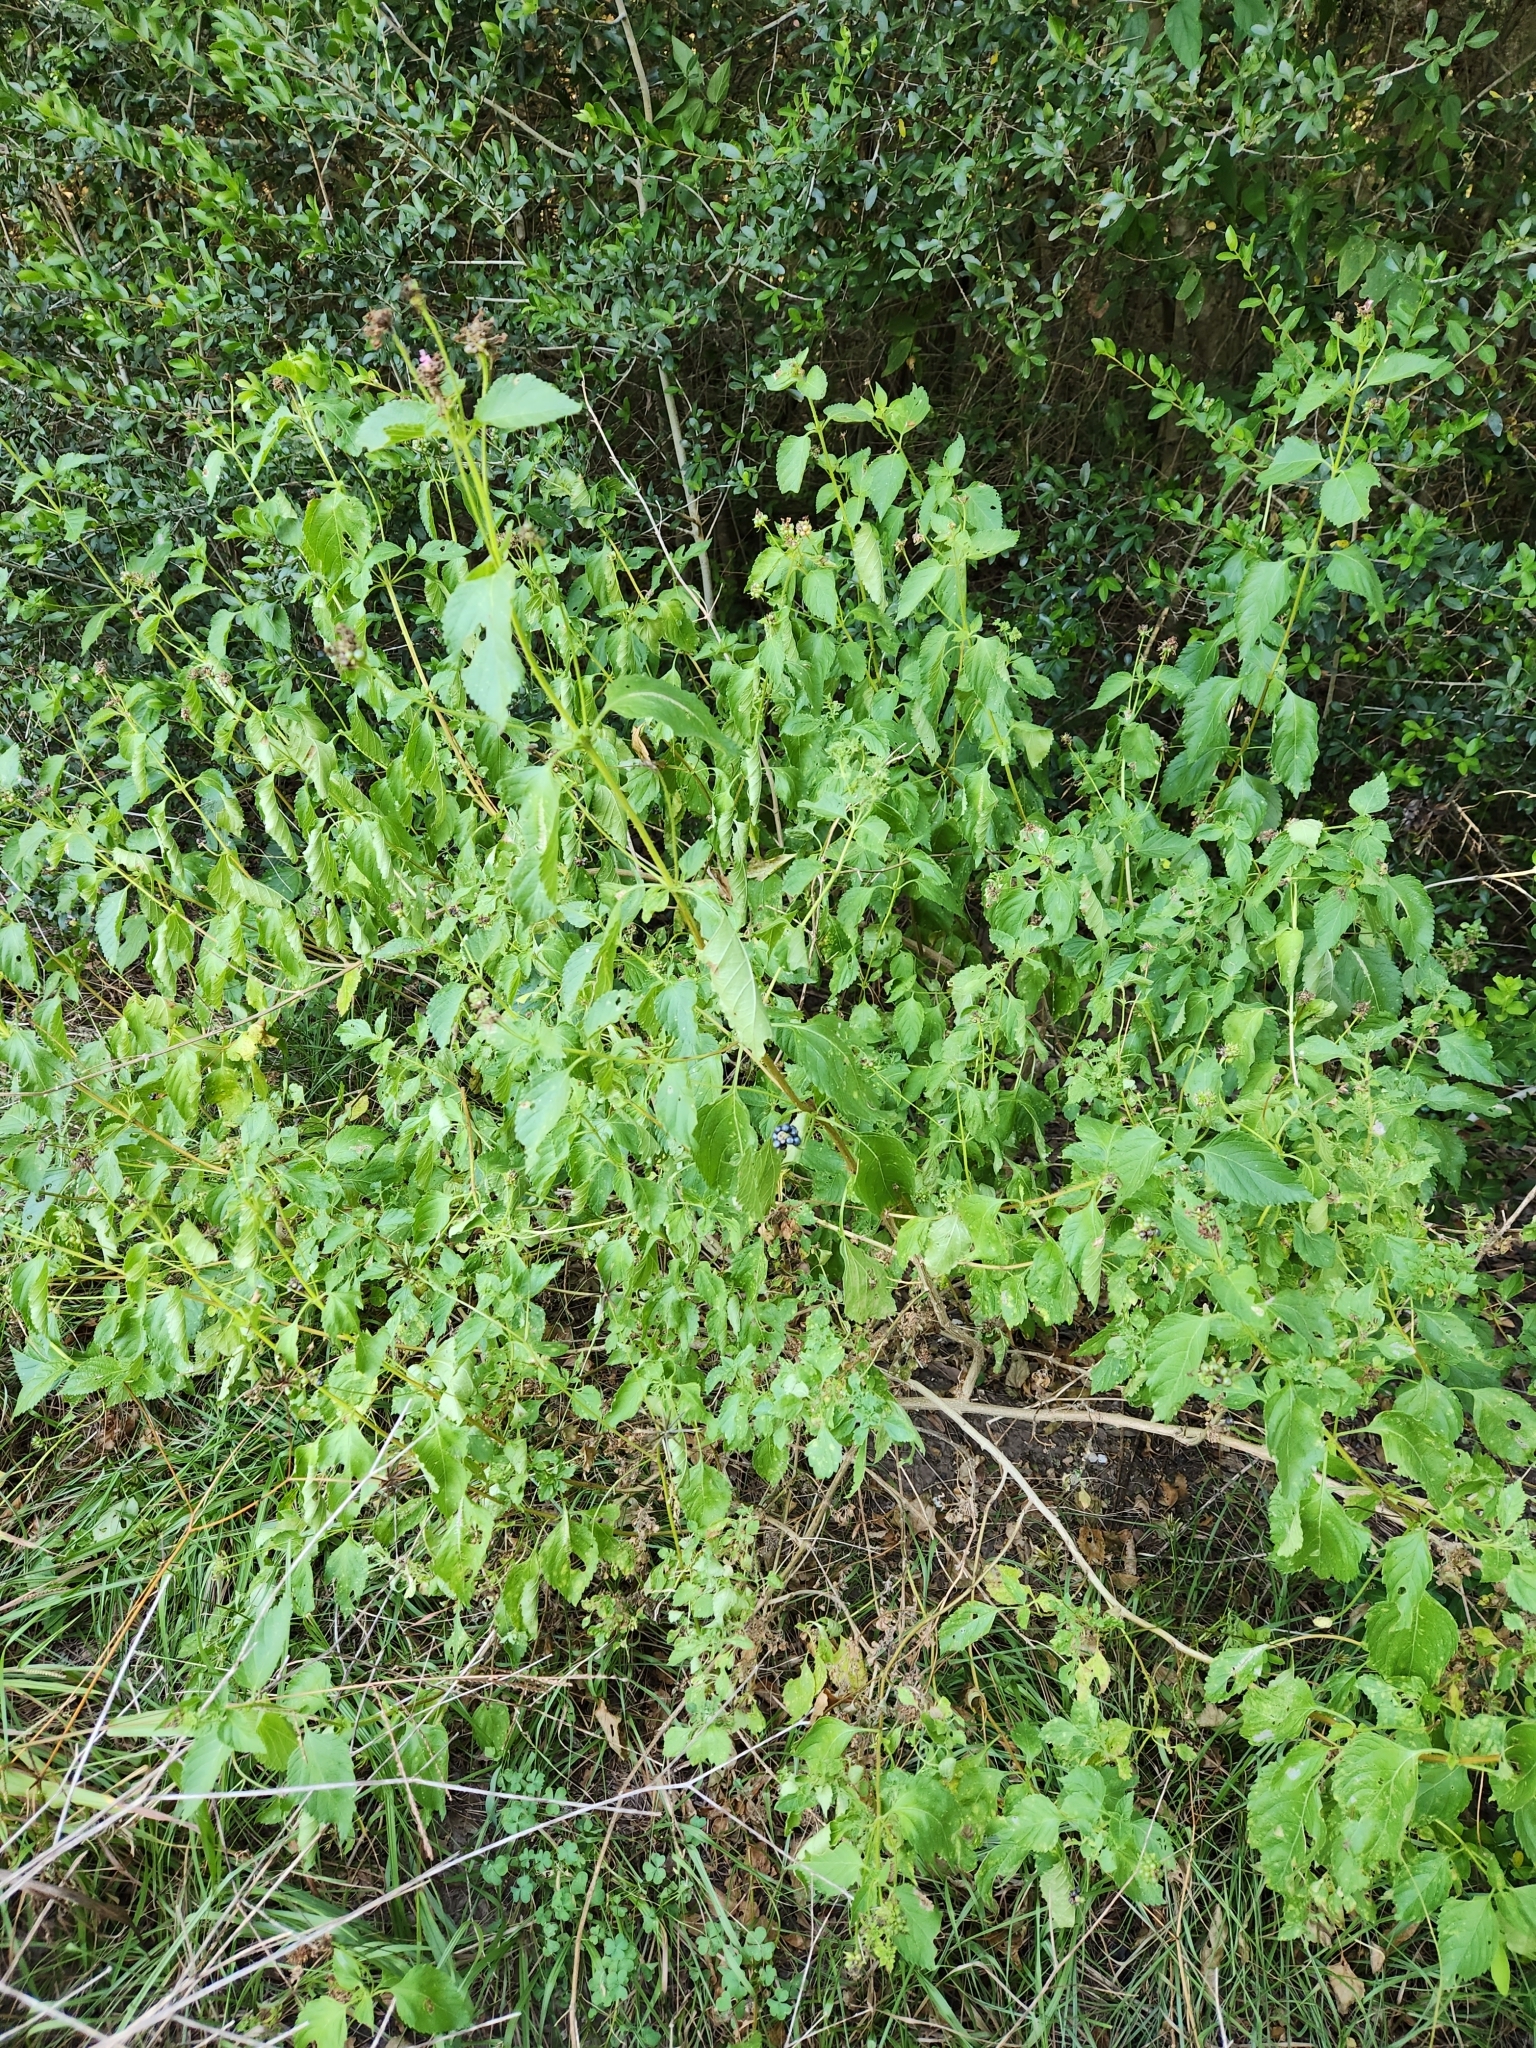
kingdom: Plantae
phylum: Tracheophyta
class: Magnoliopsida
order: Lamiales
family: Verbenaceae
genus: Lantana
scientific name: Lantana strigocamara
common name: Lantana
